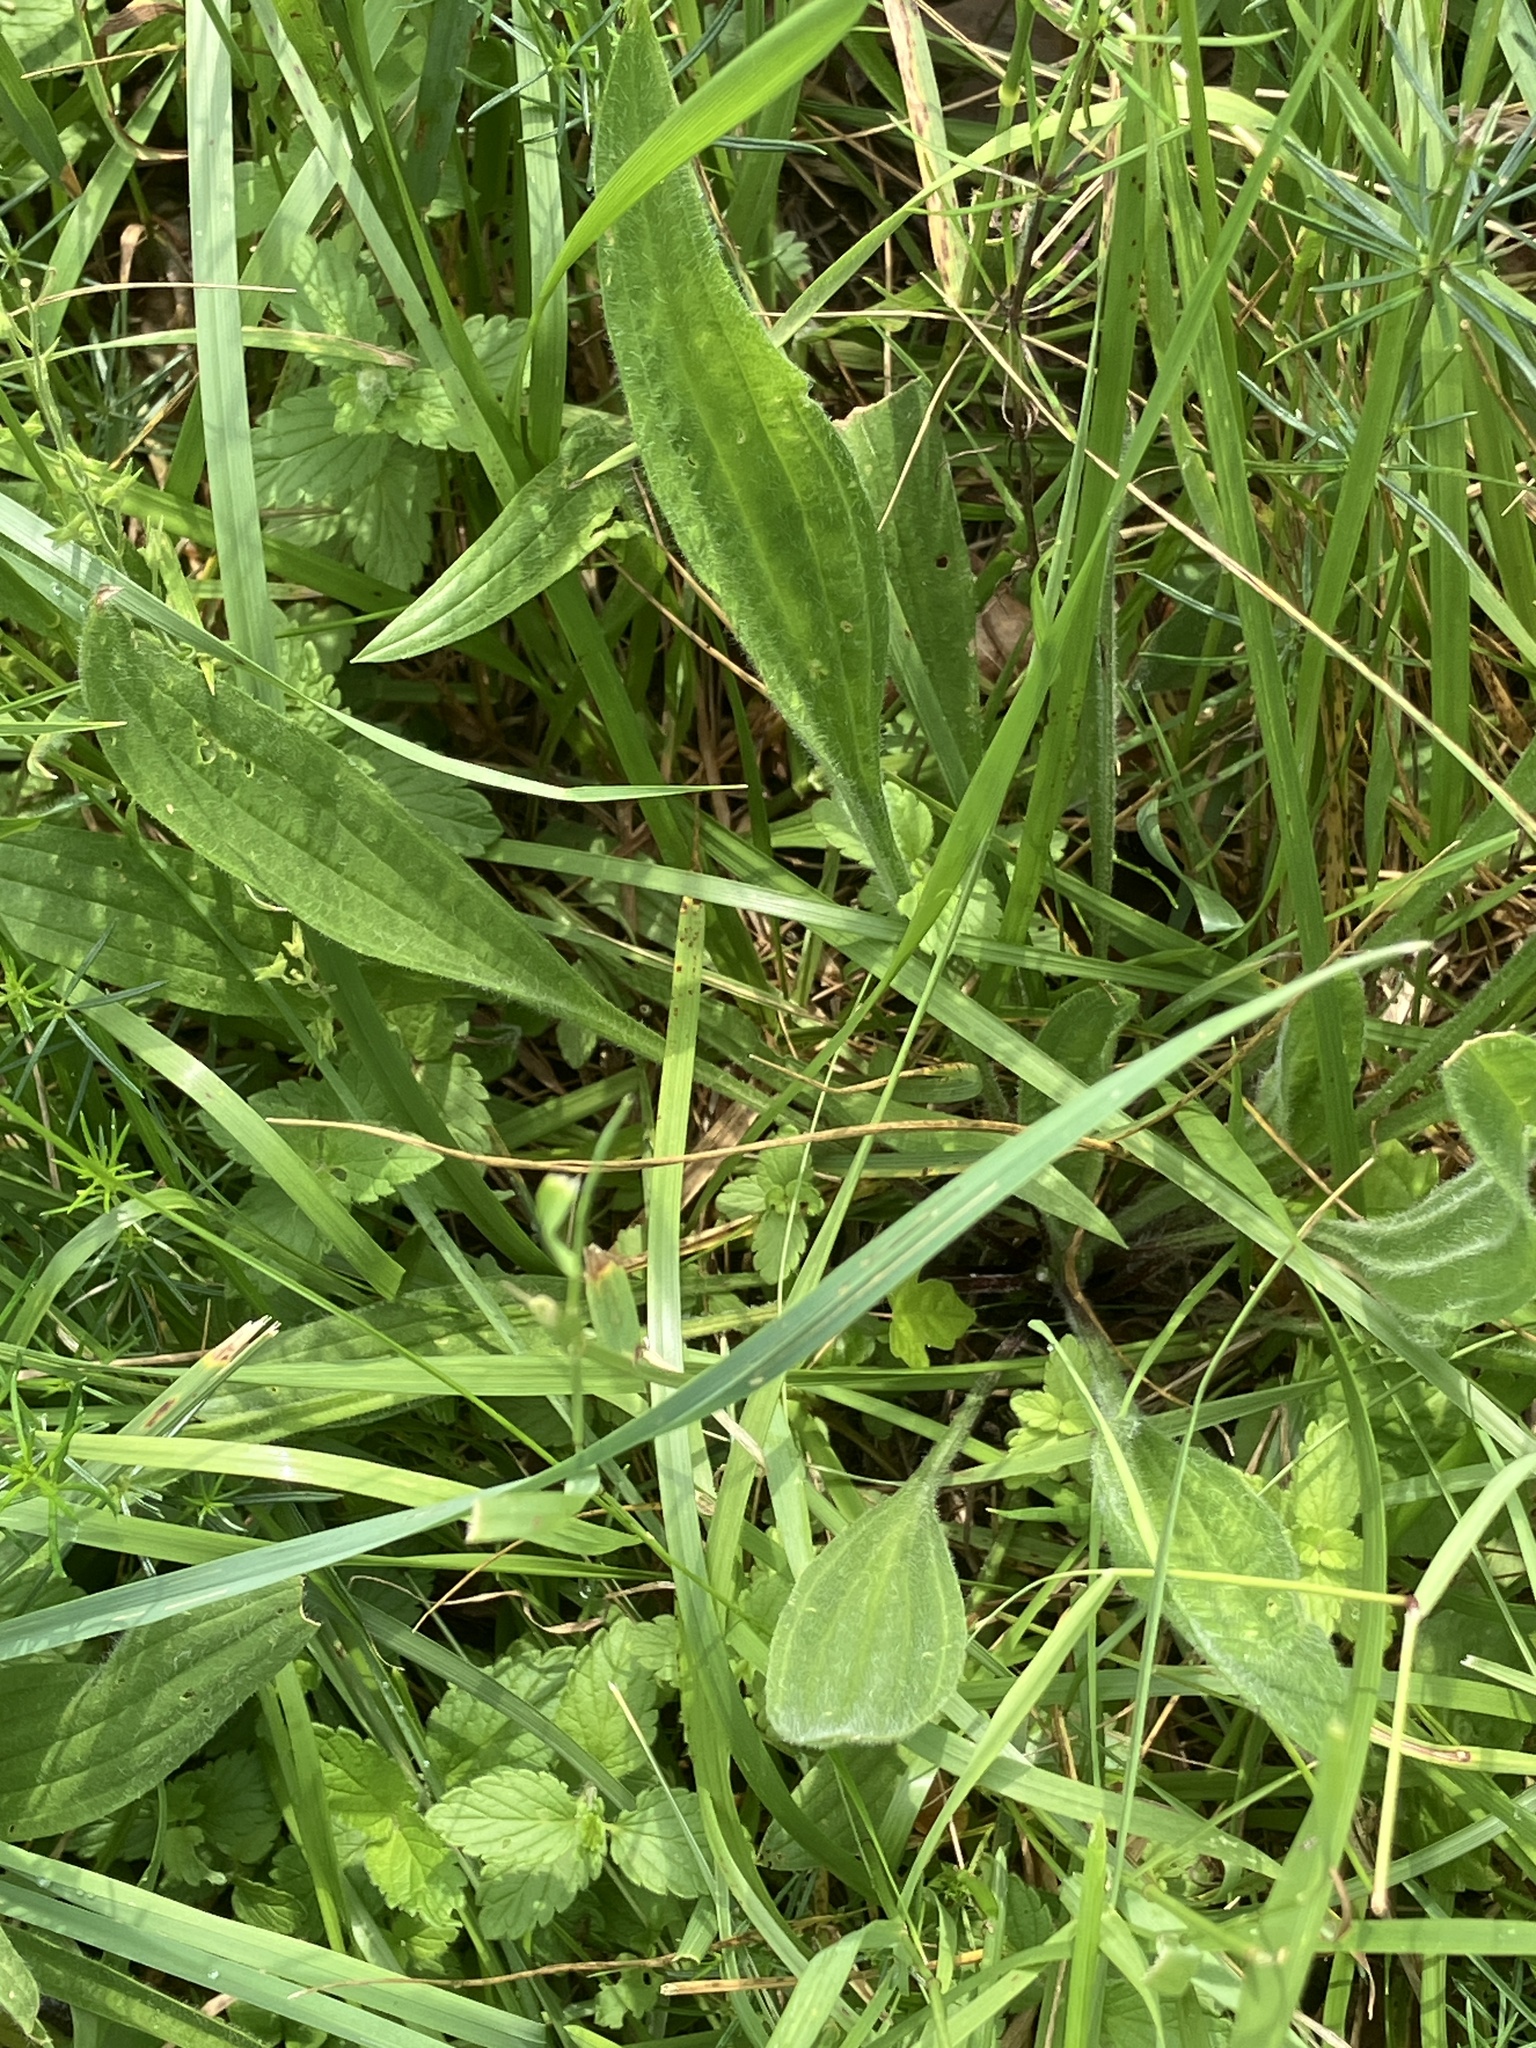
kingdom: Plantae
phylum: Tracheophyta
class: Magnoliopsida
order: Lamiales
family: Plantaginaceae
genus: Plantago
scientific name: Plantago lanceolata
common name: Ribwort plantain
